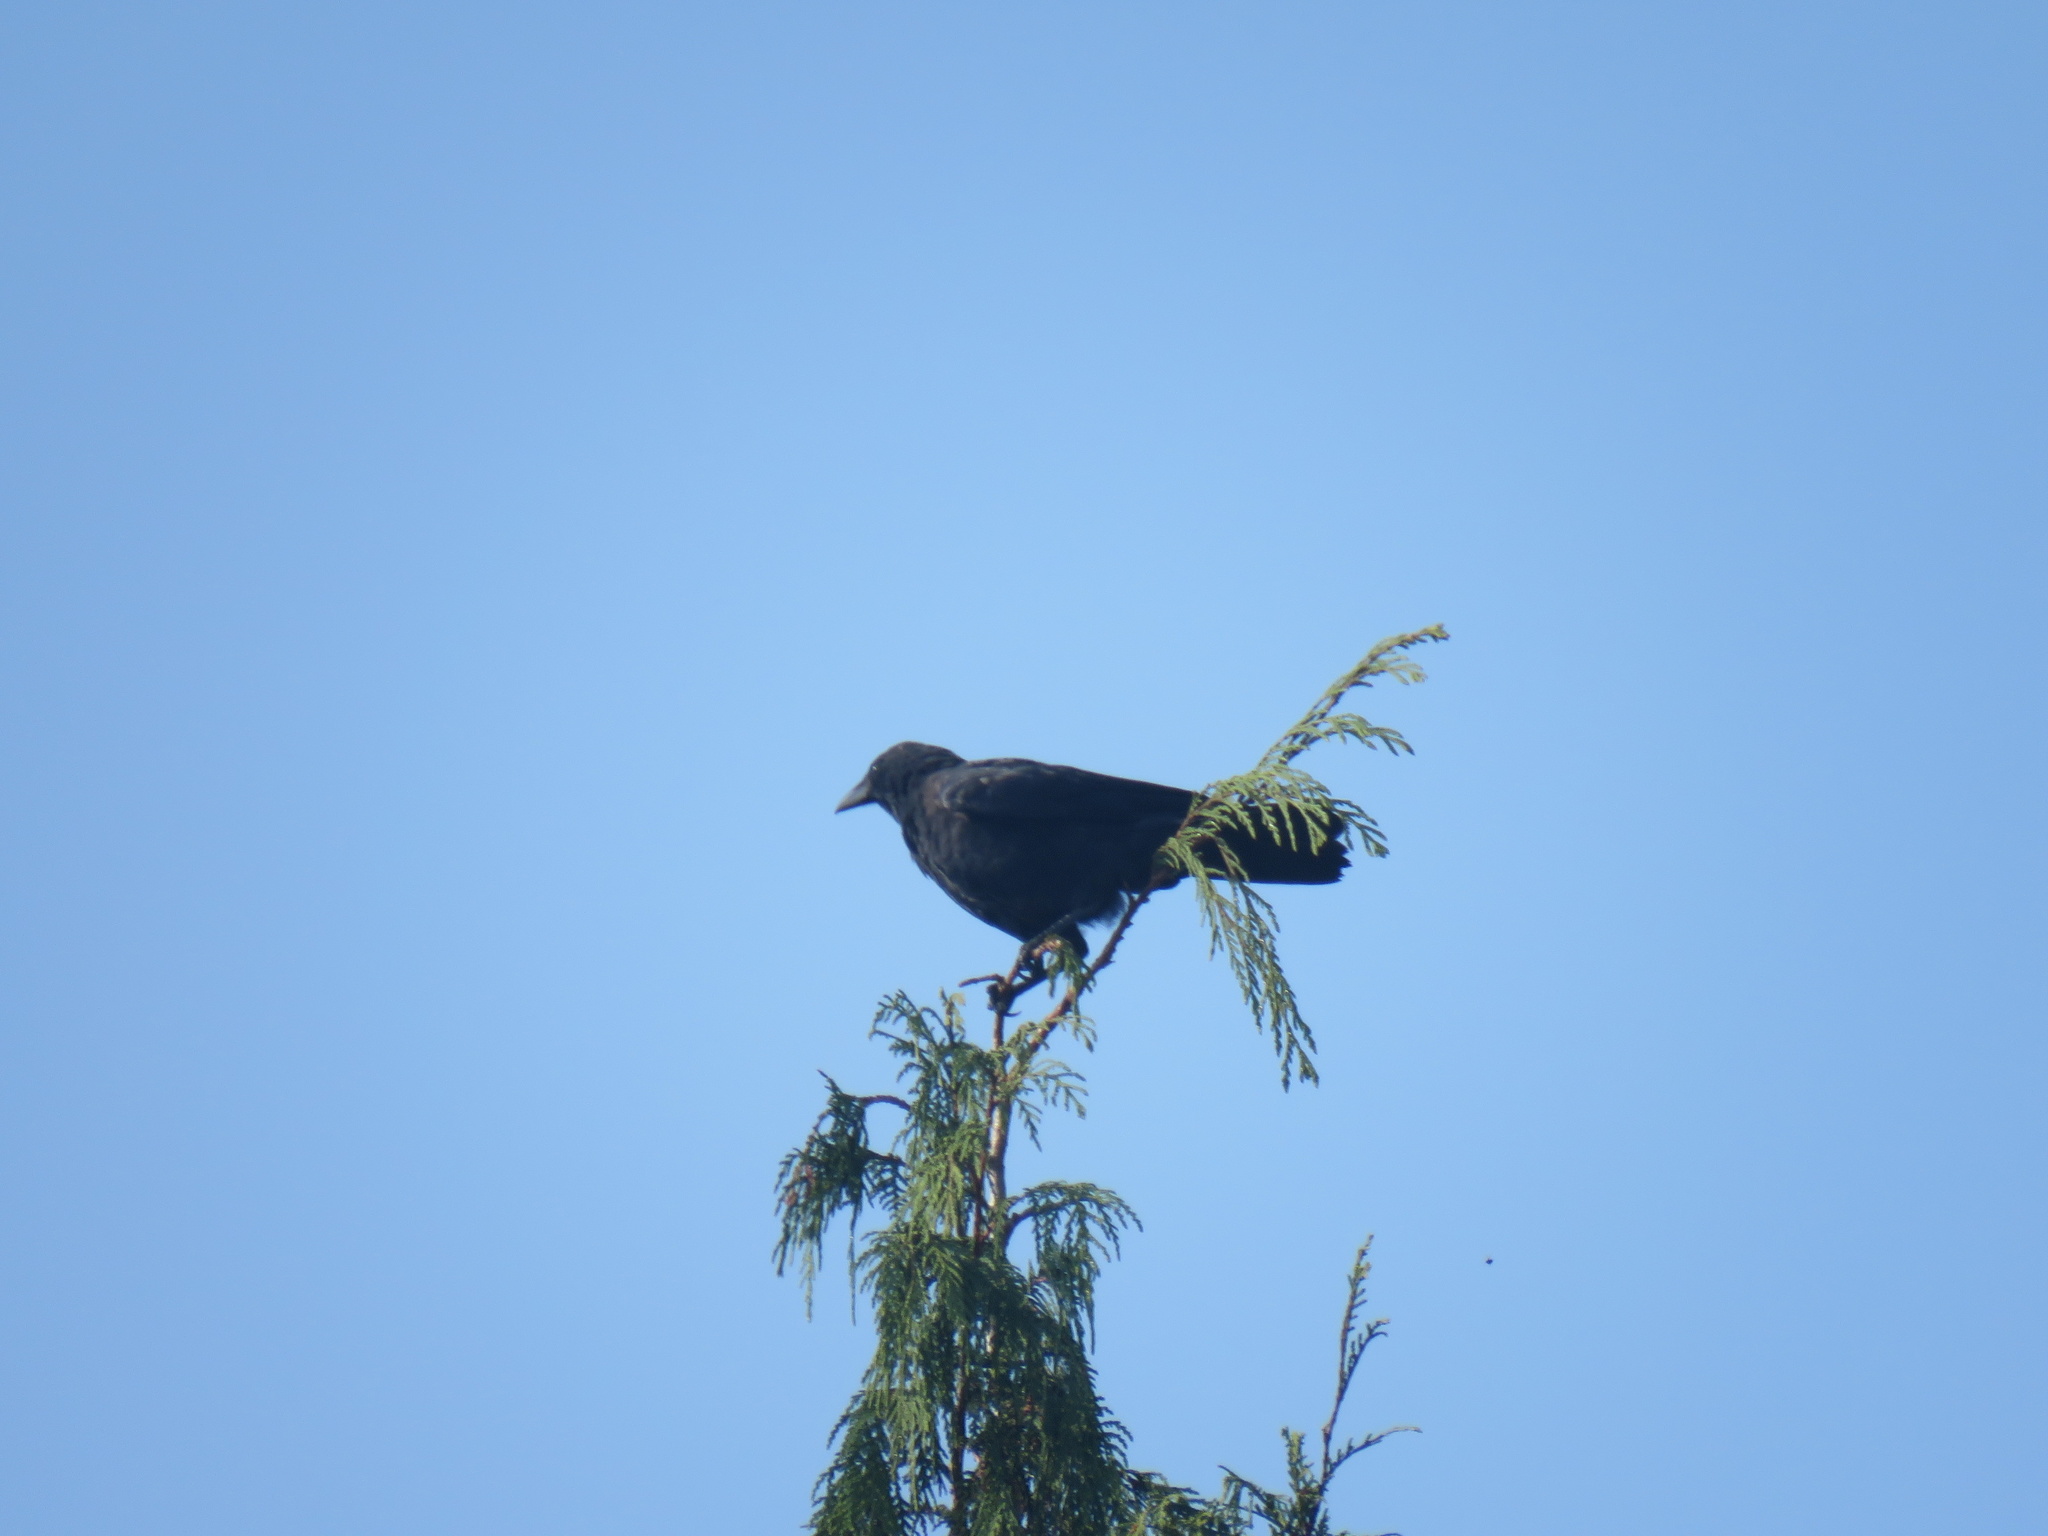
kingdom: Animalia
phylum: Chordata
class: Aves
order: Passeriformes
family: Corvidae
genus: Corvus
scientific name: Corvus brachyrhynchos
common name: American crow
